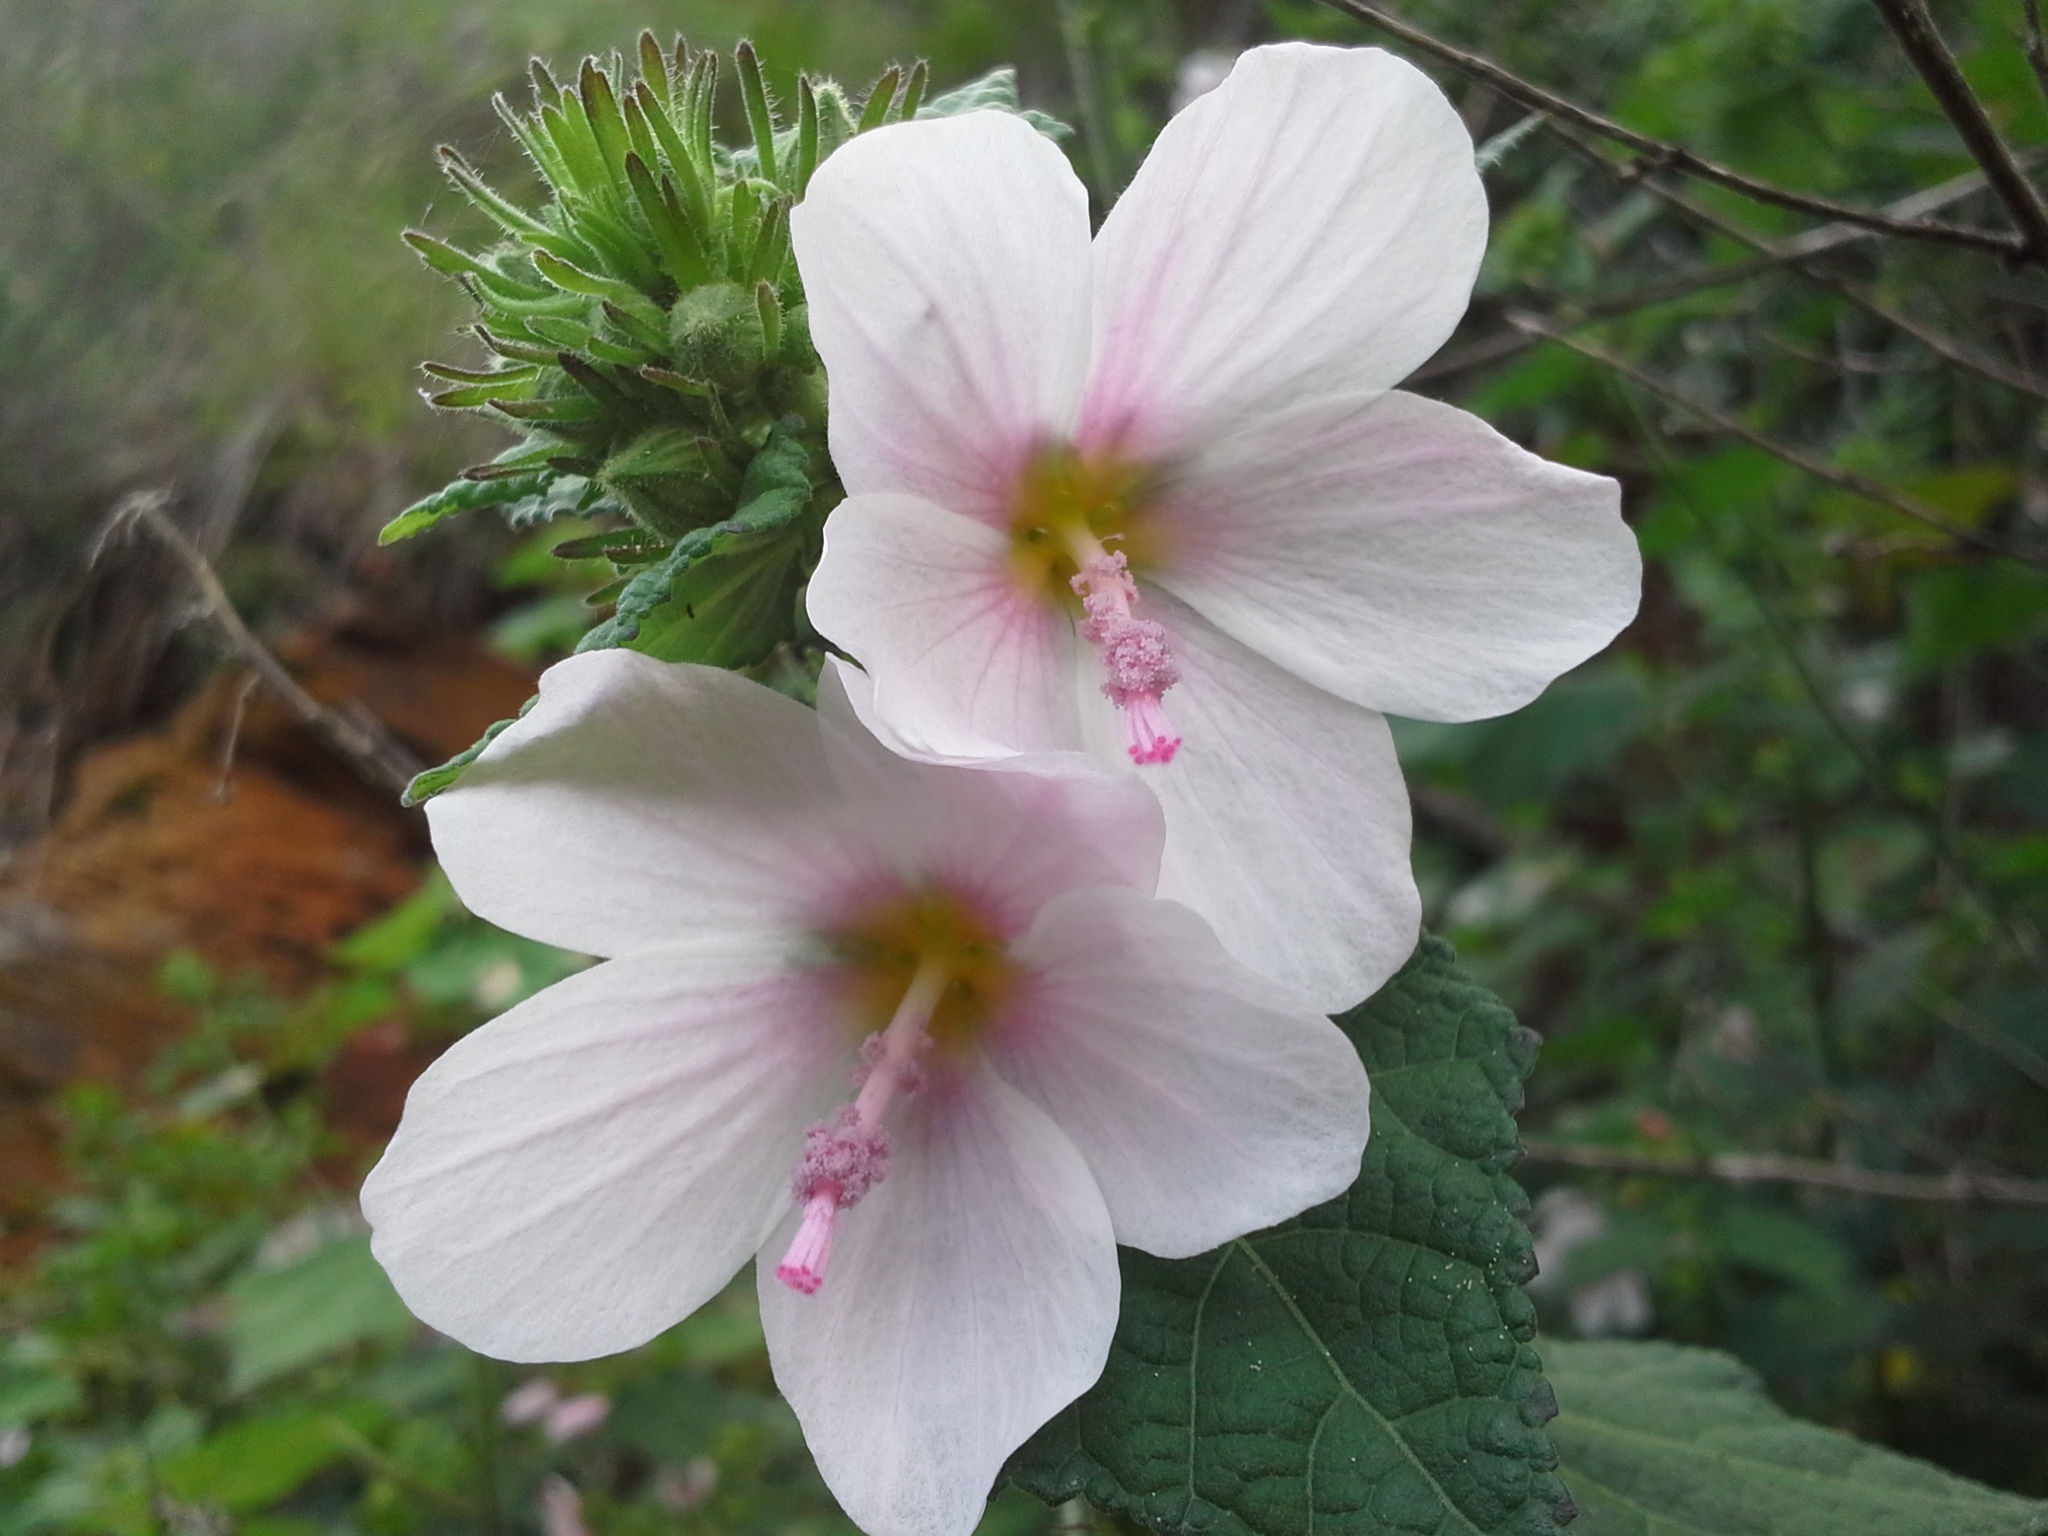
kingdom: Plantae
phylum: Tracheophyta
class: Magnoliopsida
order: Malvales
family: Malvaceae
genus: Pavonia
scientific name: Pavonia columella
